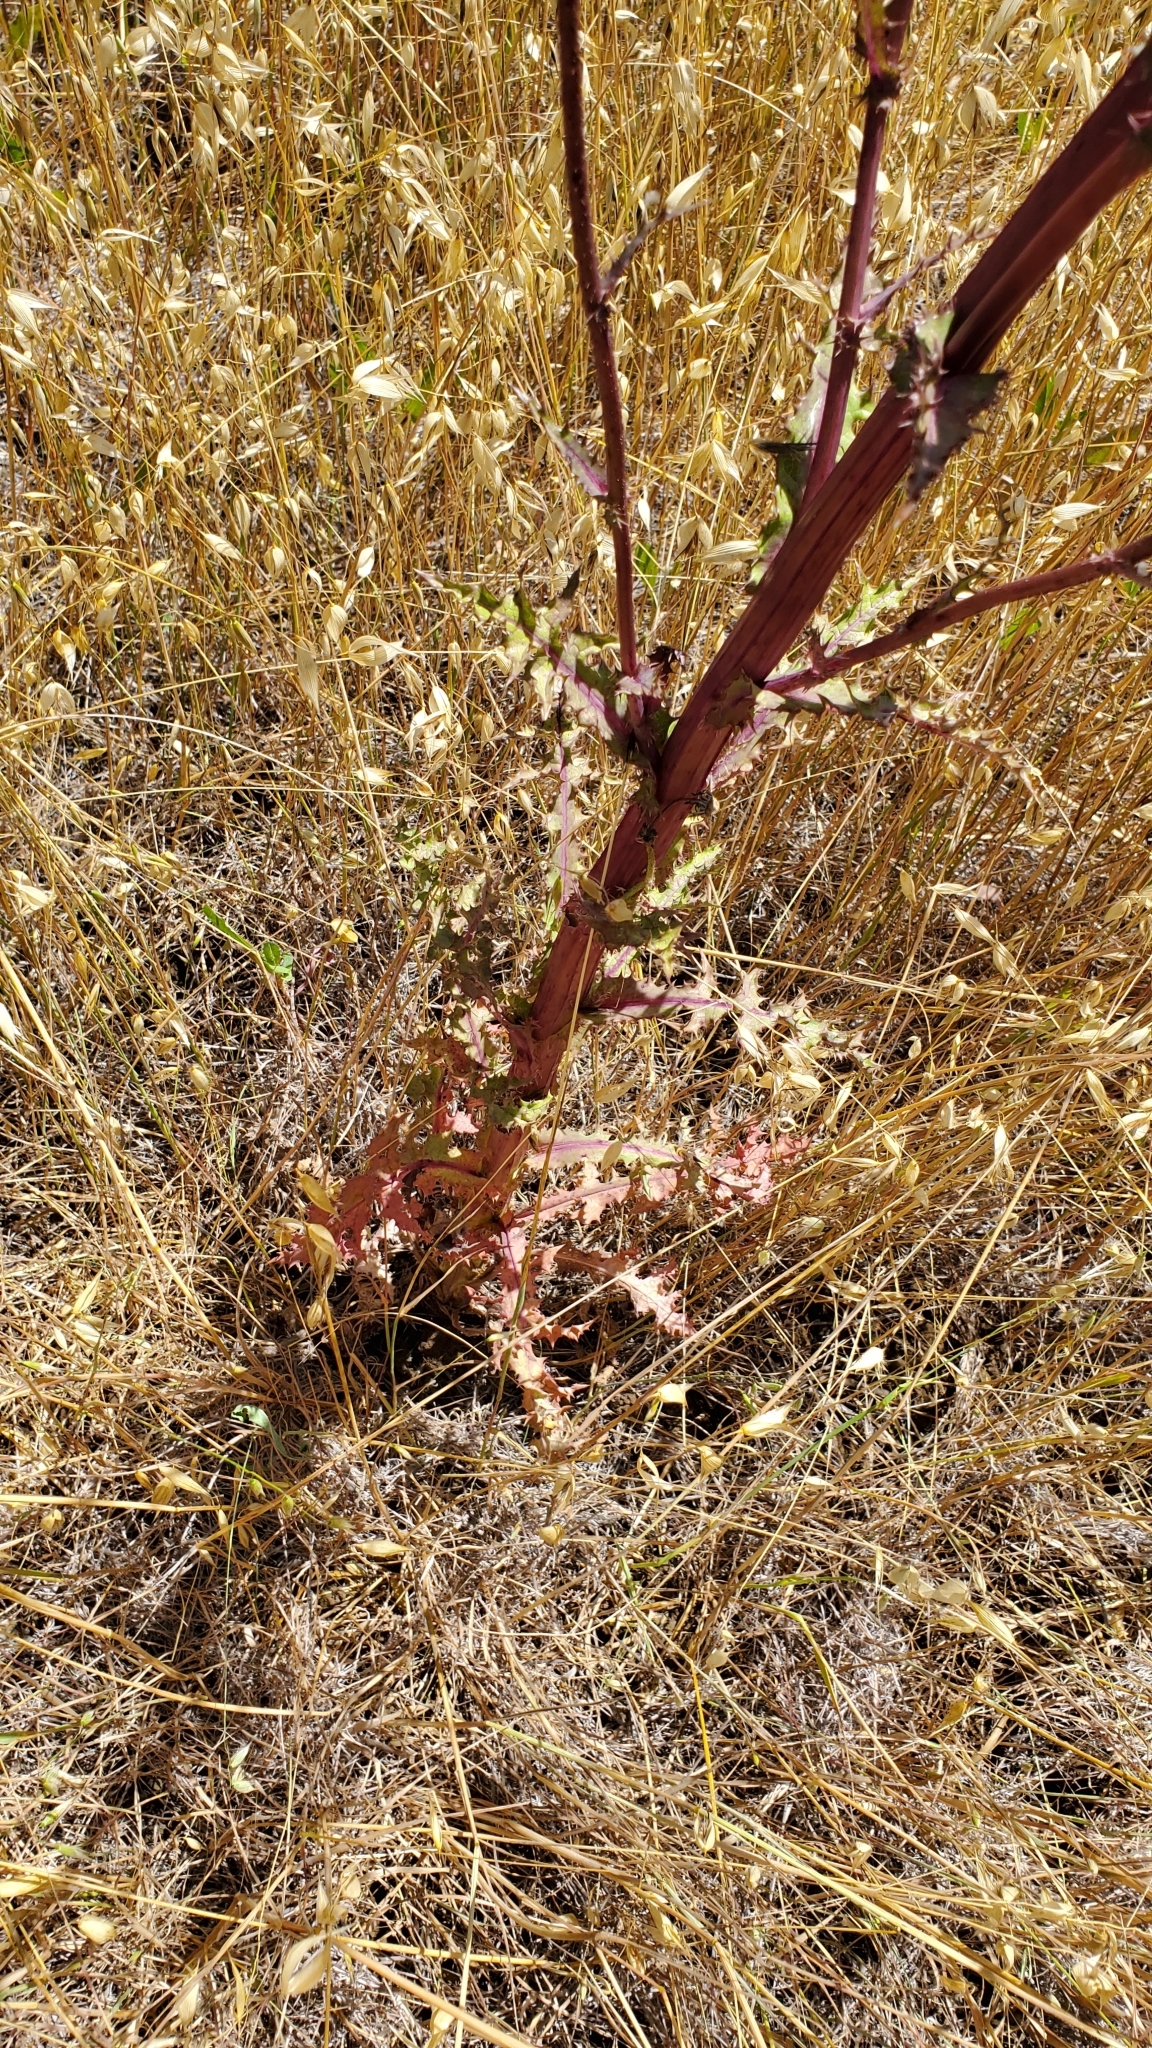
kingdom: Plantae
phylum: Tracheophyta
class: Magnoliopsida
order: Asterales
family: Asteraceae
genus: Malacothrix
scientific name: Malacothrix saxatilis
